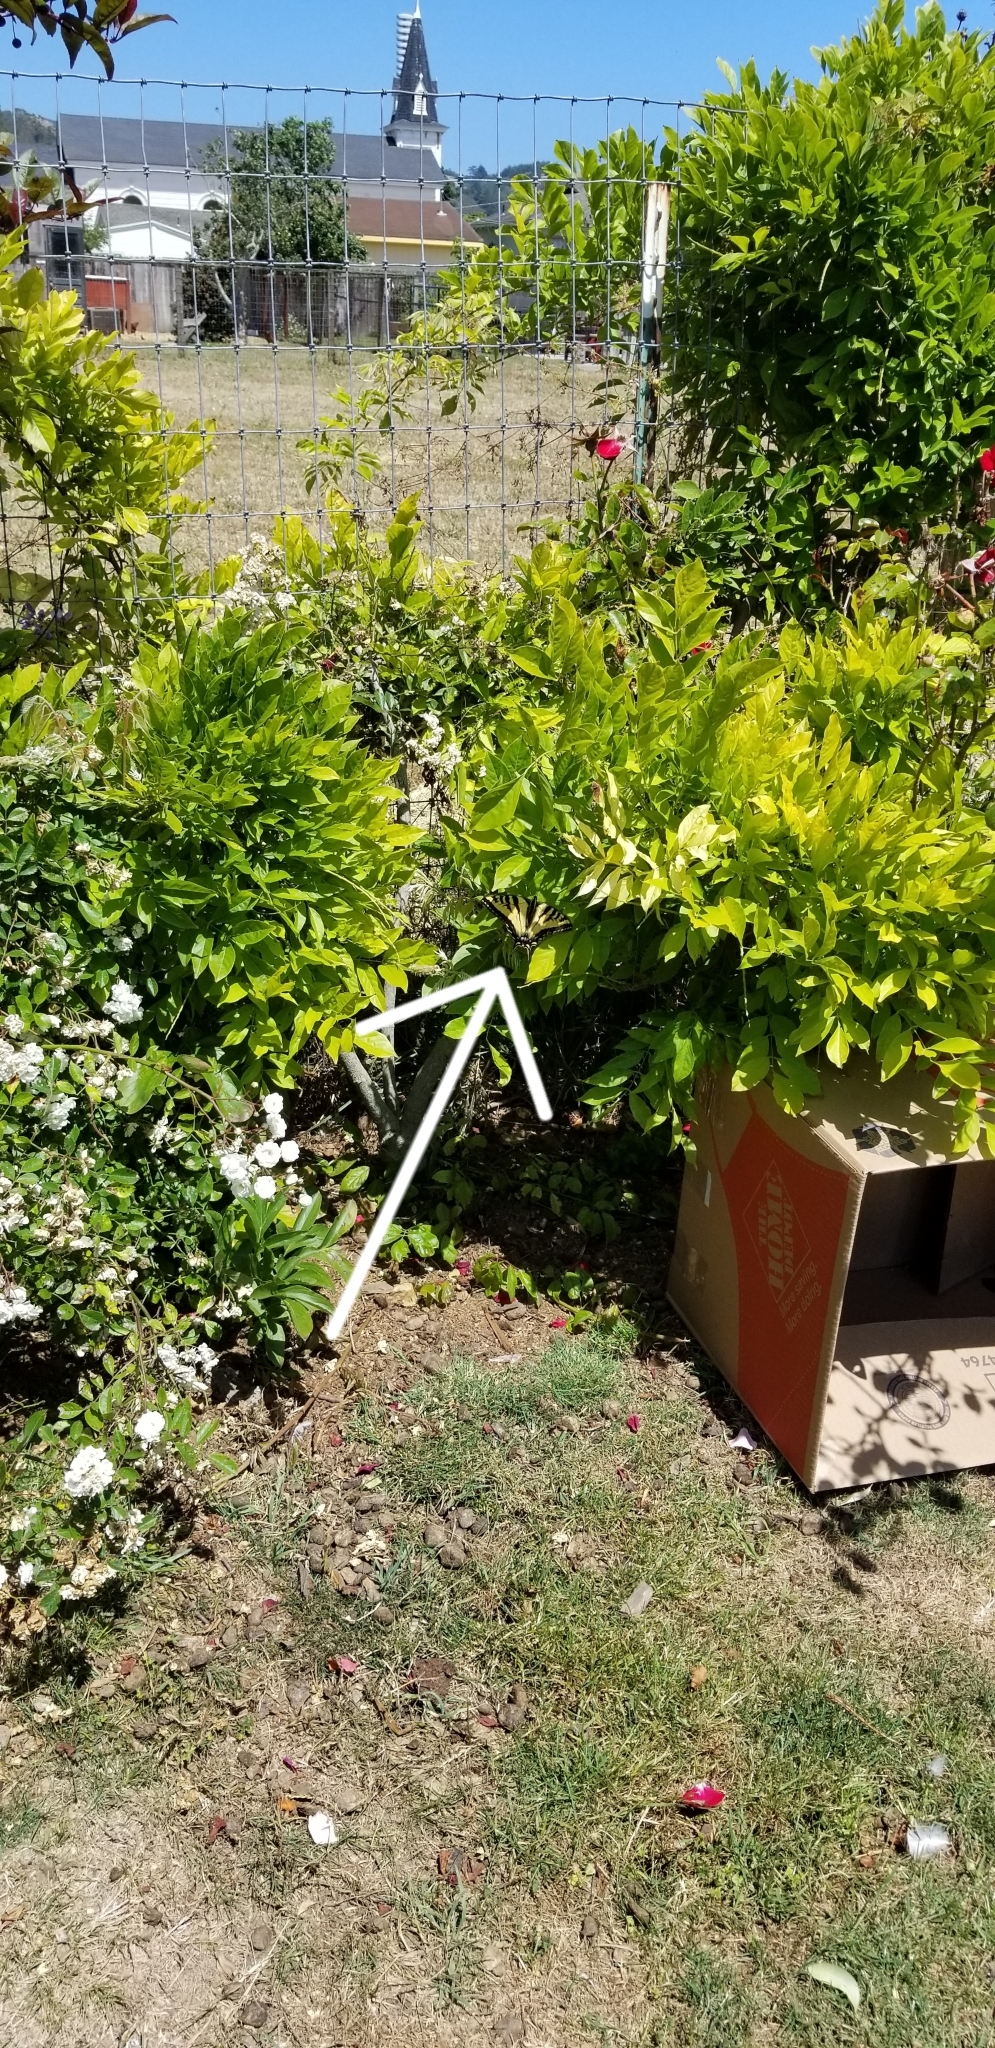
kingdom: Animalia
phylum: Arthropoda
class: Insecta
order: Lepidoptera
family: Papilionidae
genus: Papilio
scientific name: Papilio rutulus
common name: Western tiger swallowtail
